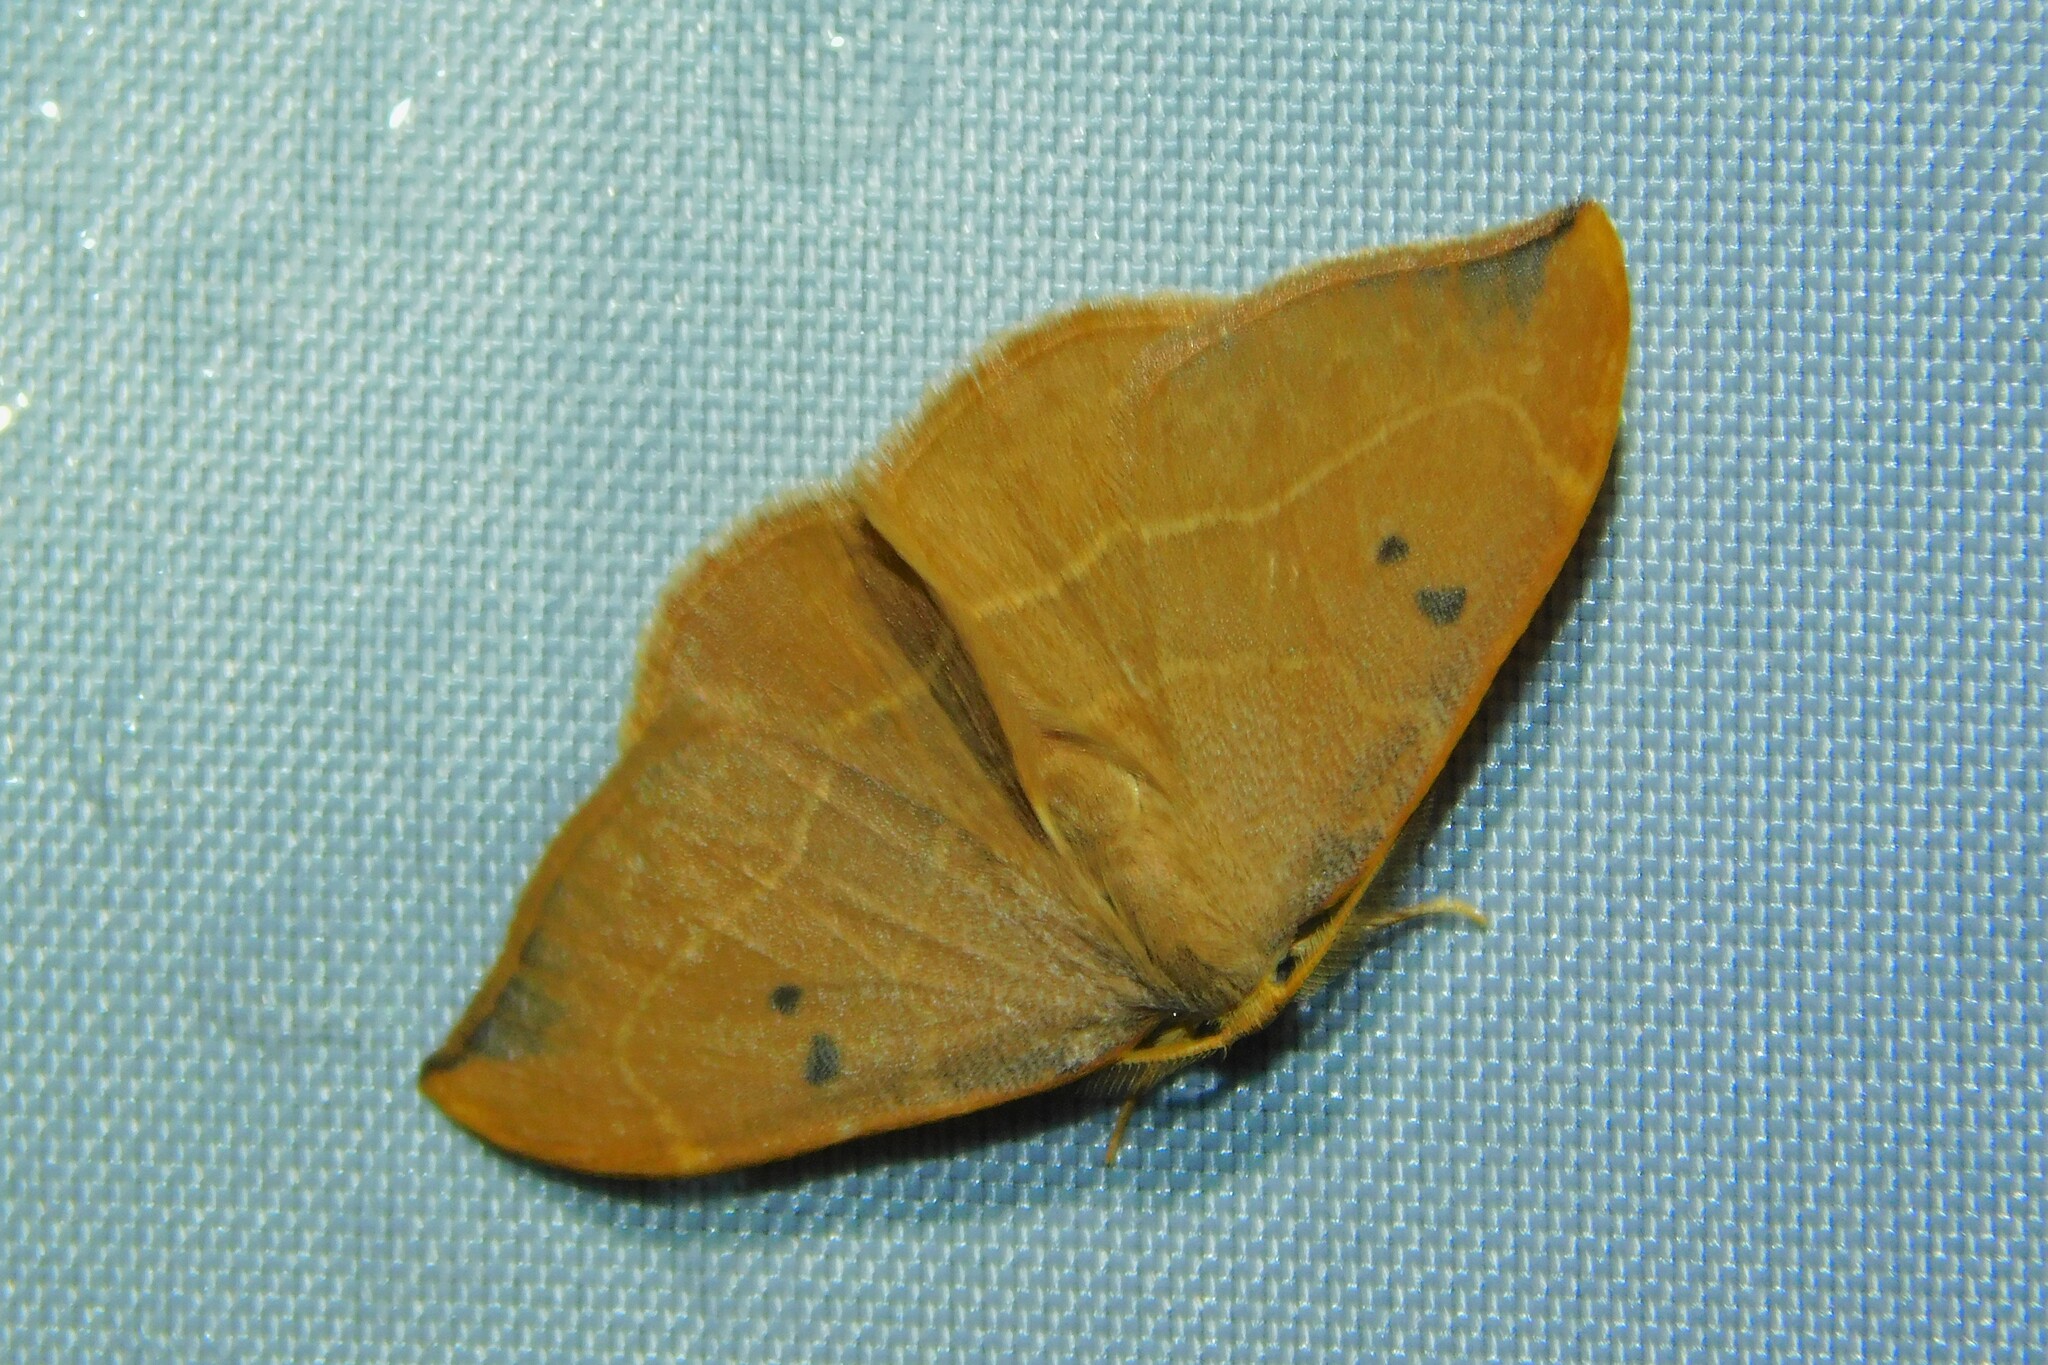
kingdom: Animalia
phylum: Arthropoda
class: Insecta
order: Lepidoptera
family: Drepanidae
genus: Watsonalla
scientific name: Watsonalla binaria
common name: Oak hook-tip
